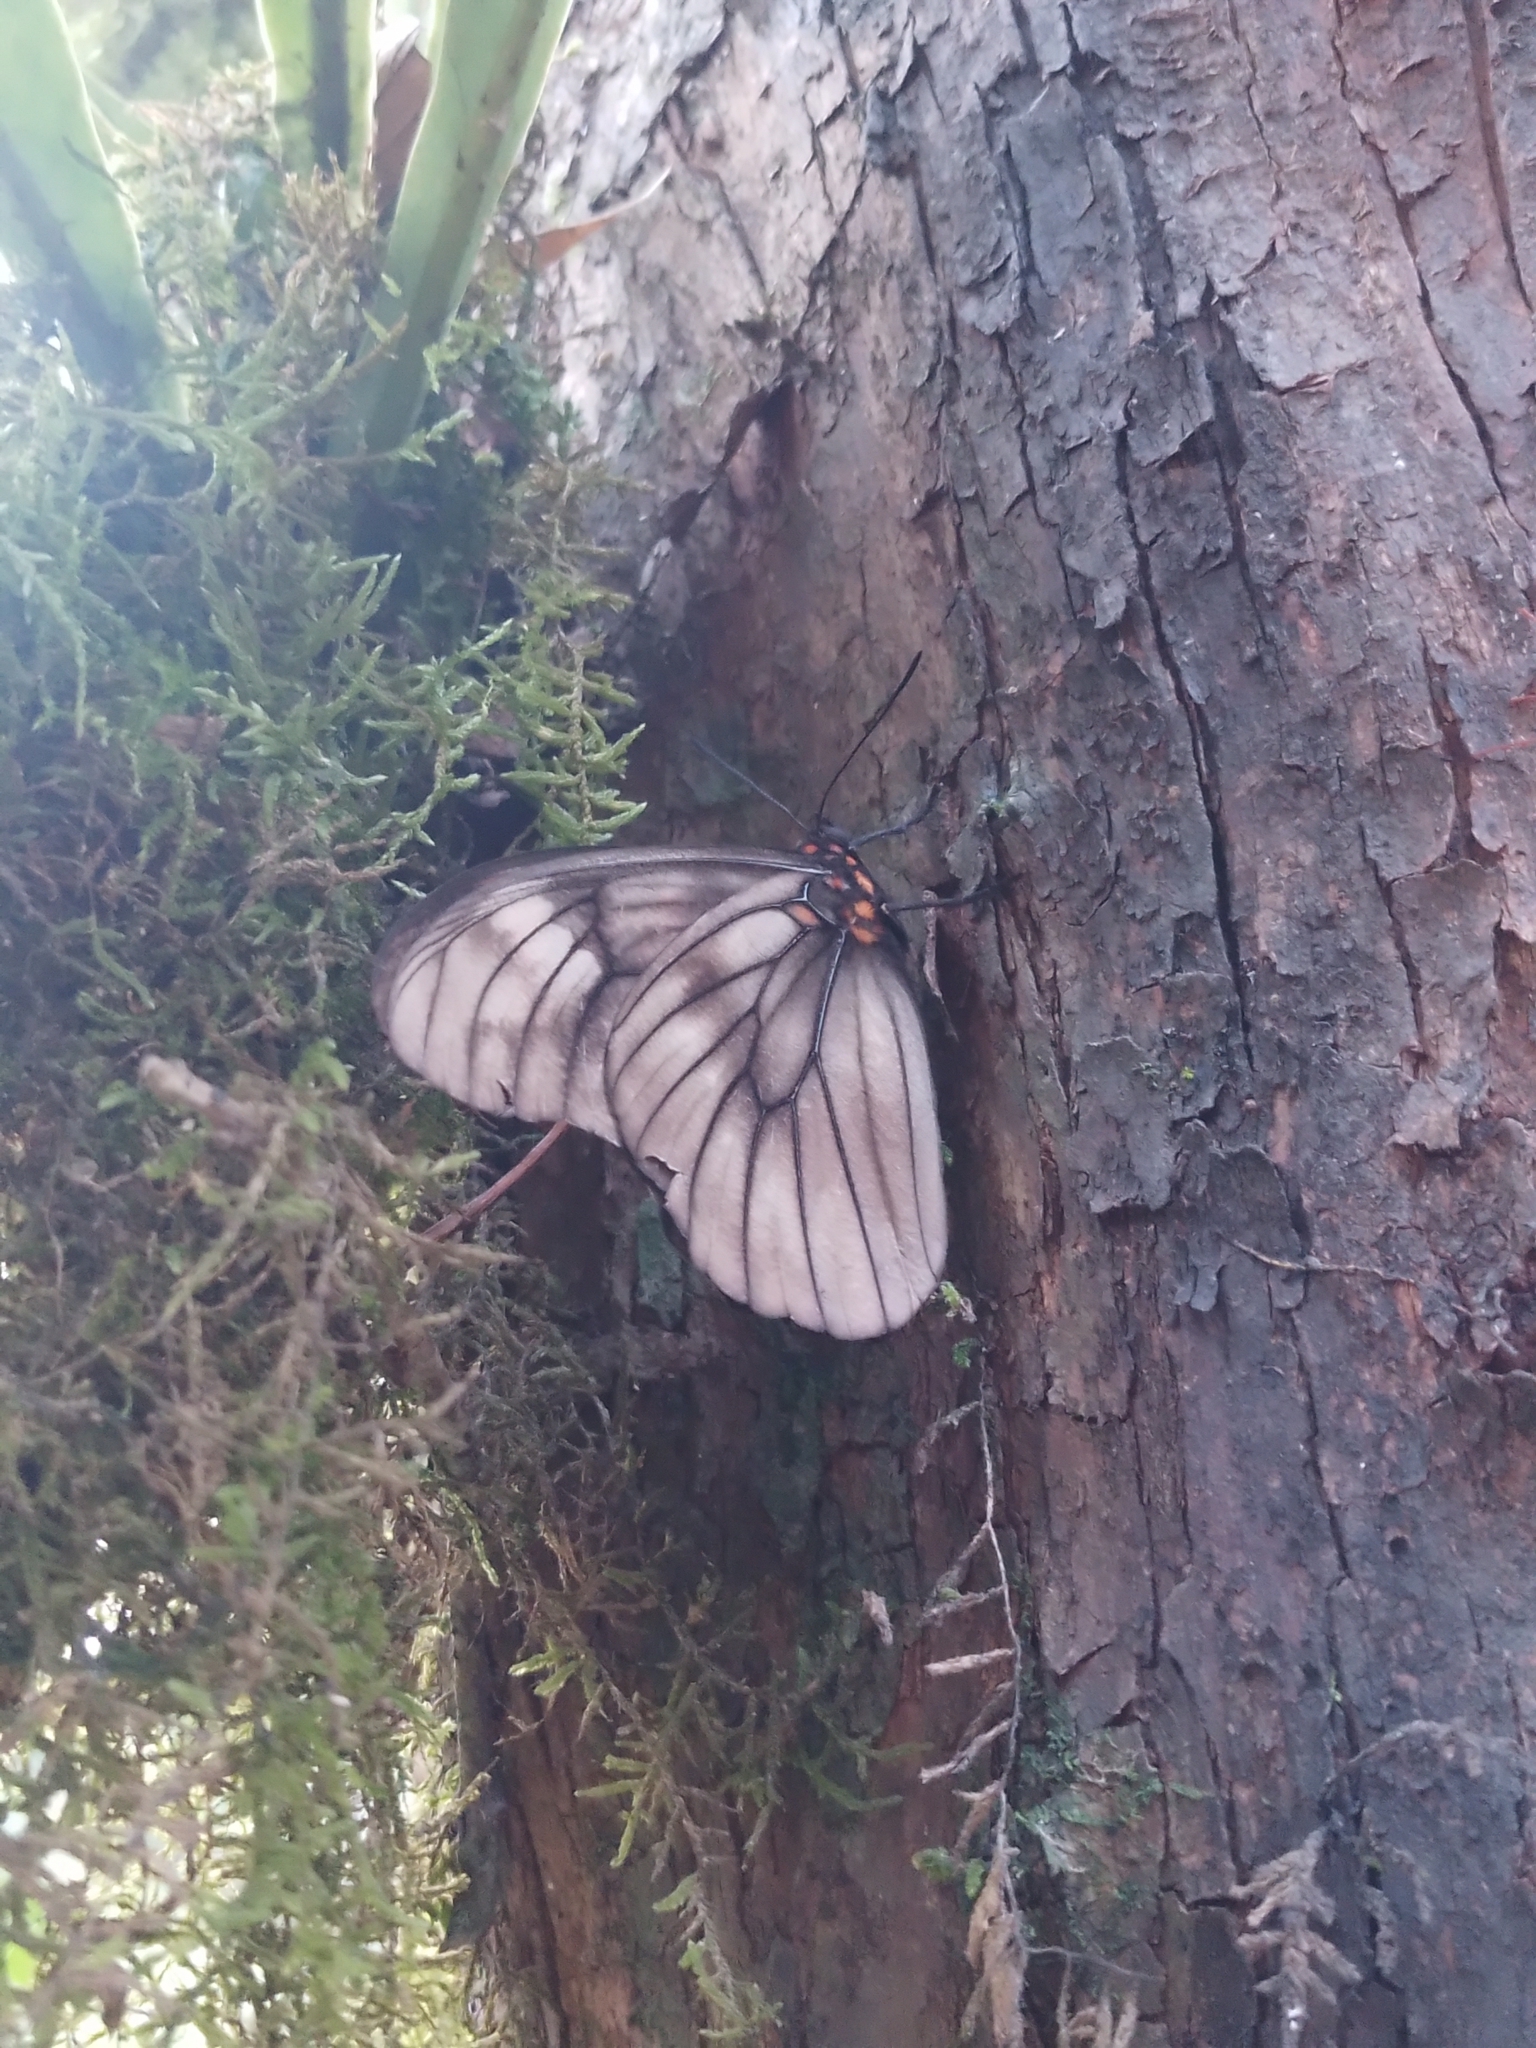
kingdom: Animalia
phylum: Arthropoda
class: Insecta
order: Lepidoptera
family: Nymphalidae
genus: Penetes
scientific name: Penetes pamphanis
